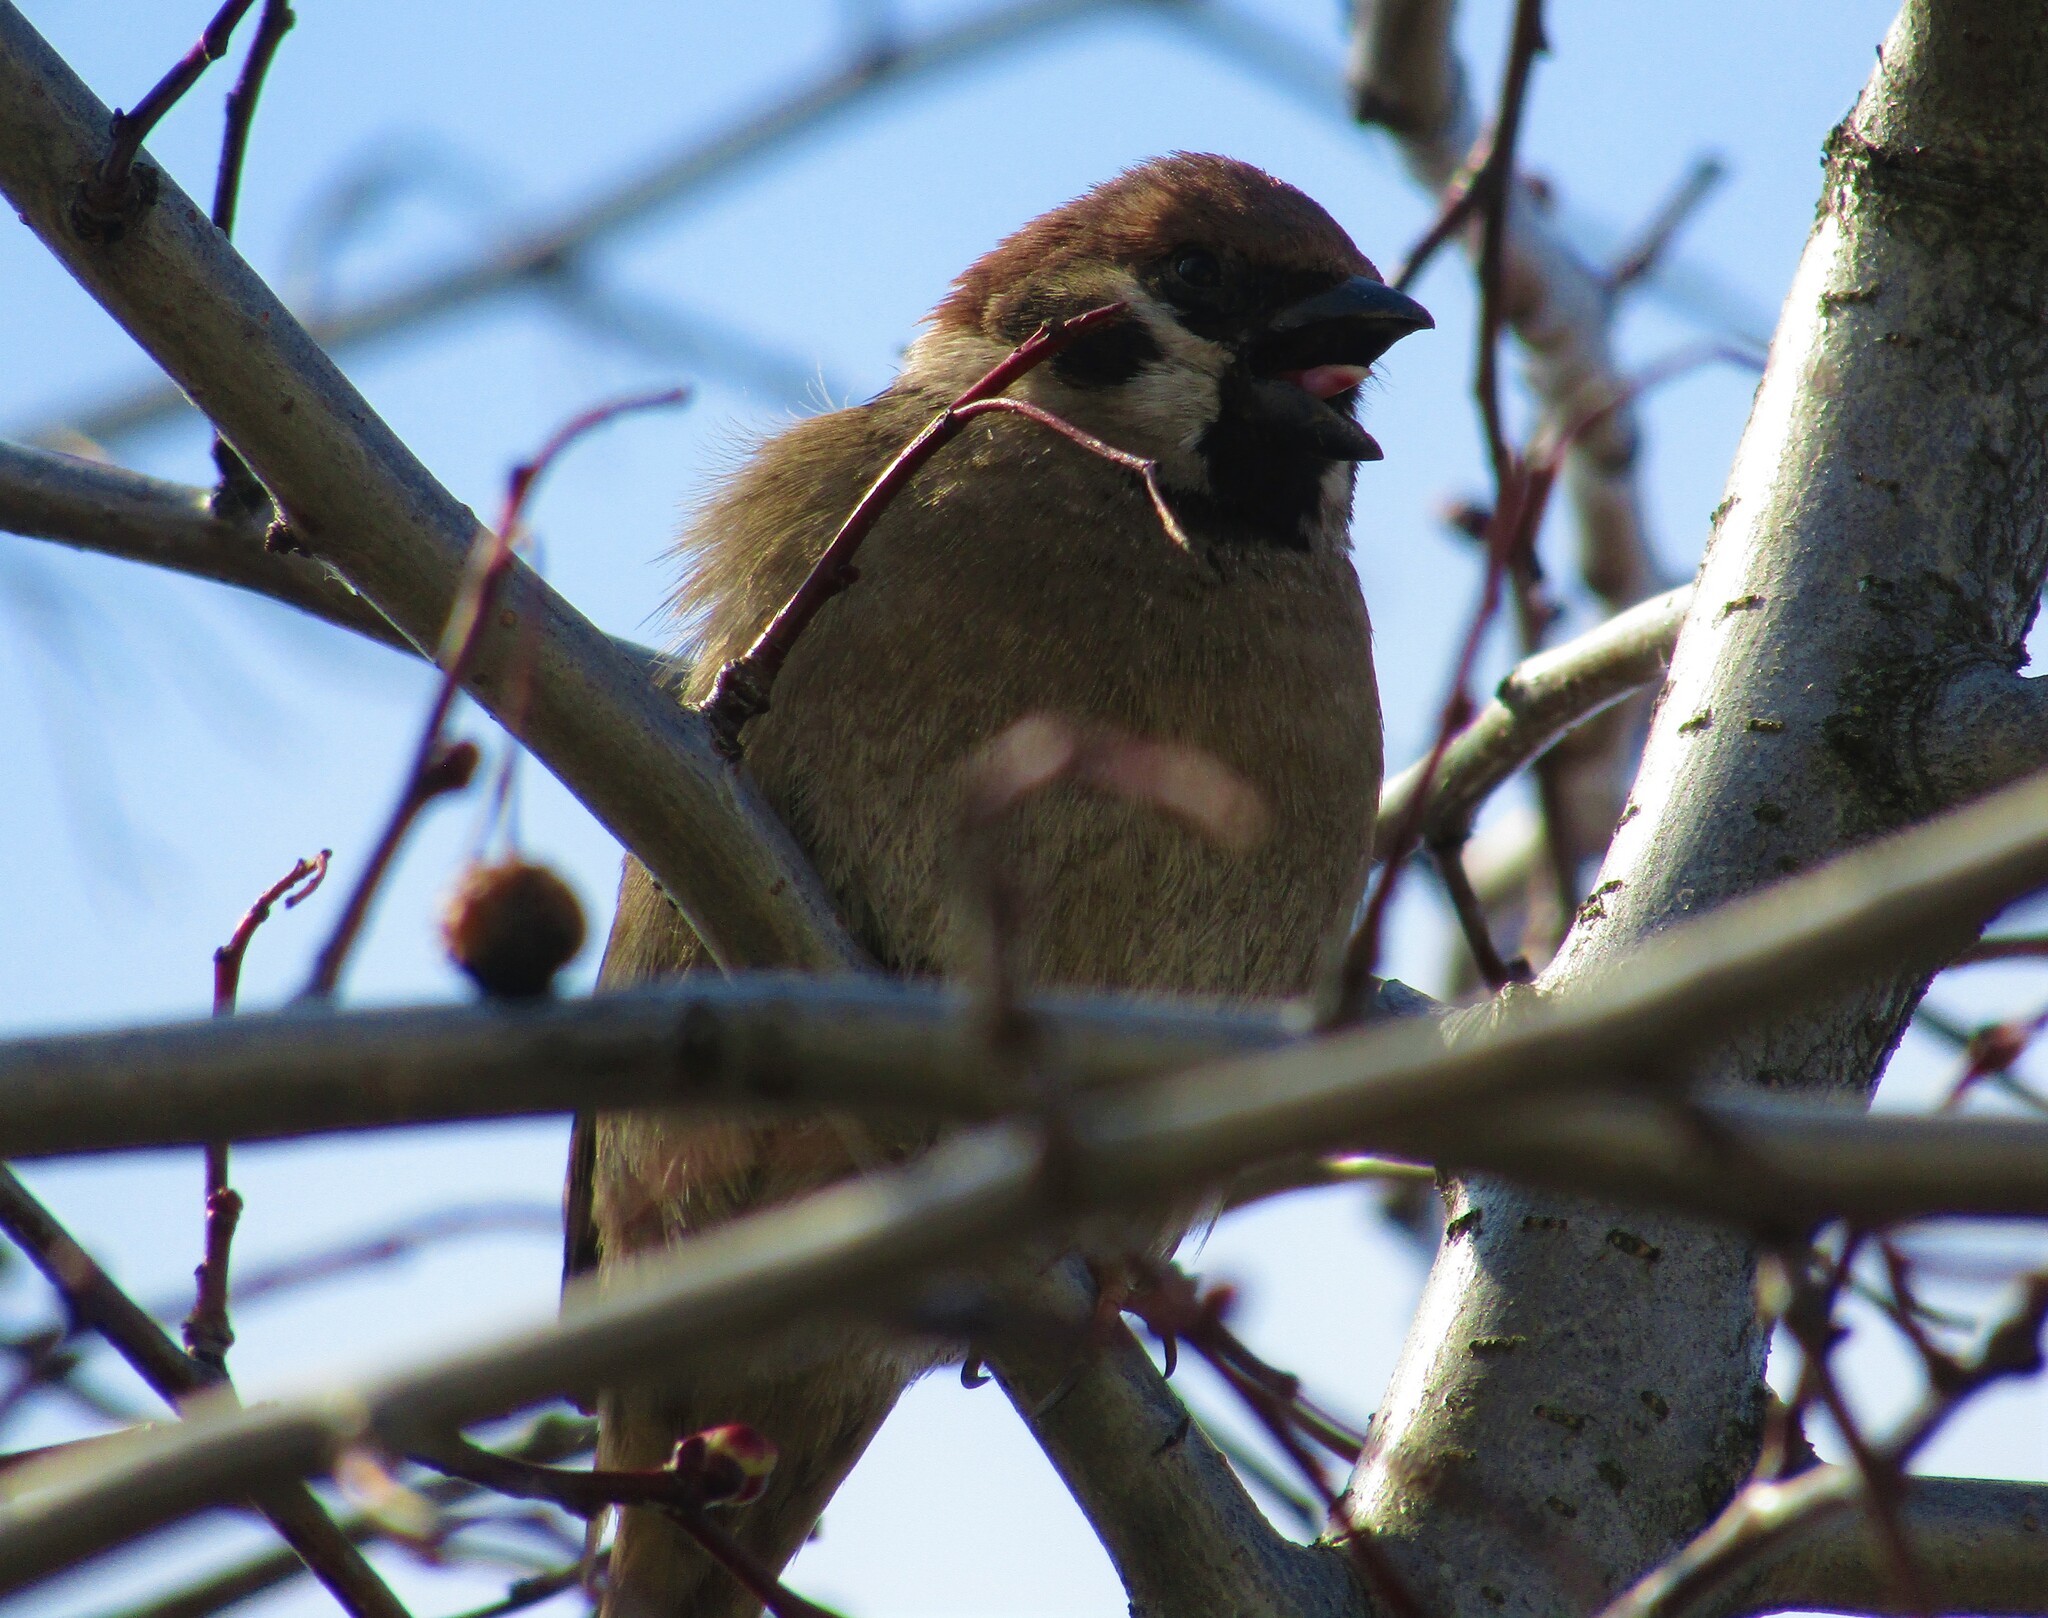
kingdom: Animalia
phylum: Chordata
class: Aves
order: Passeriformes
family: Passeridae
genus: Passer
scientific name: Passer montanus
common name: Eurasian tree sparrow
